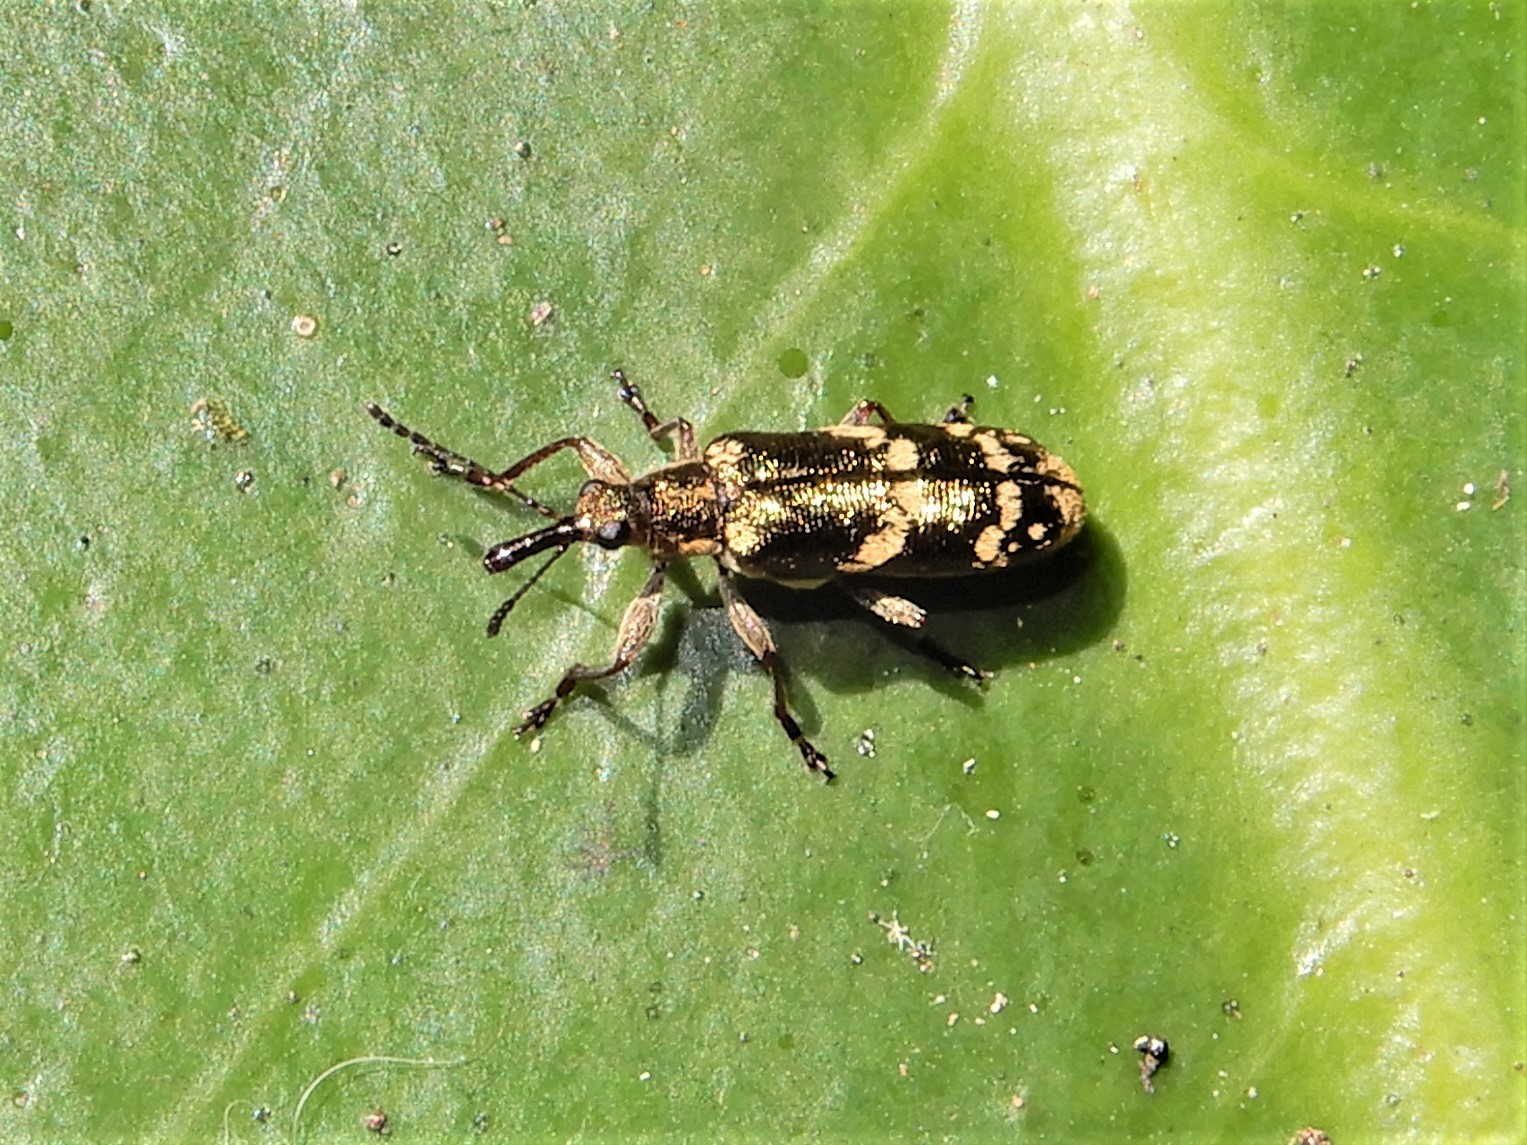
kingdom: Animalia
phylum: Arthropoda
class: Insecta
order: Coleoptera
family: Belidae
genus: Rhicnobelus
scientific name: Rhicnobelus
